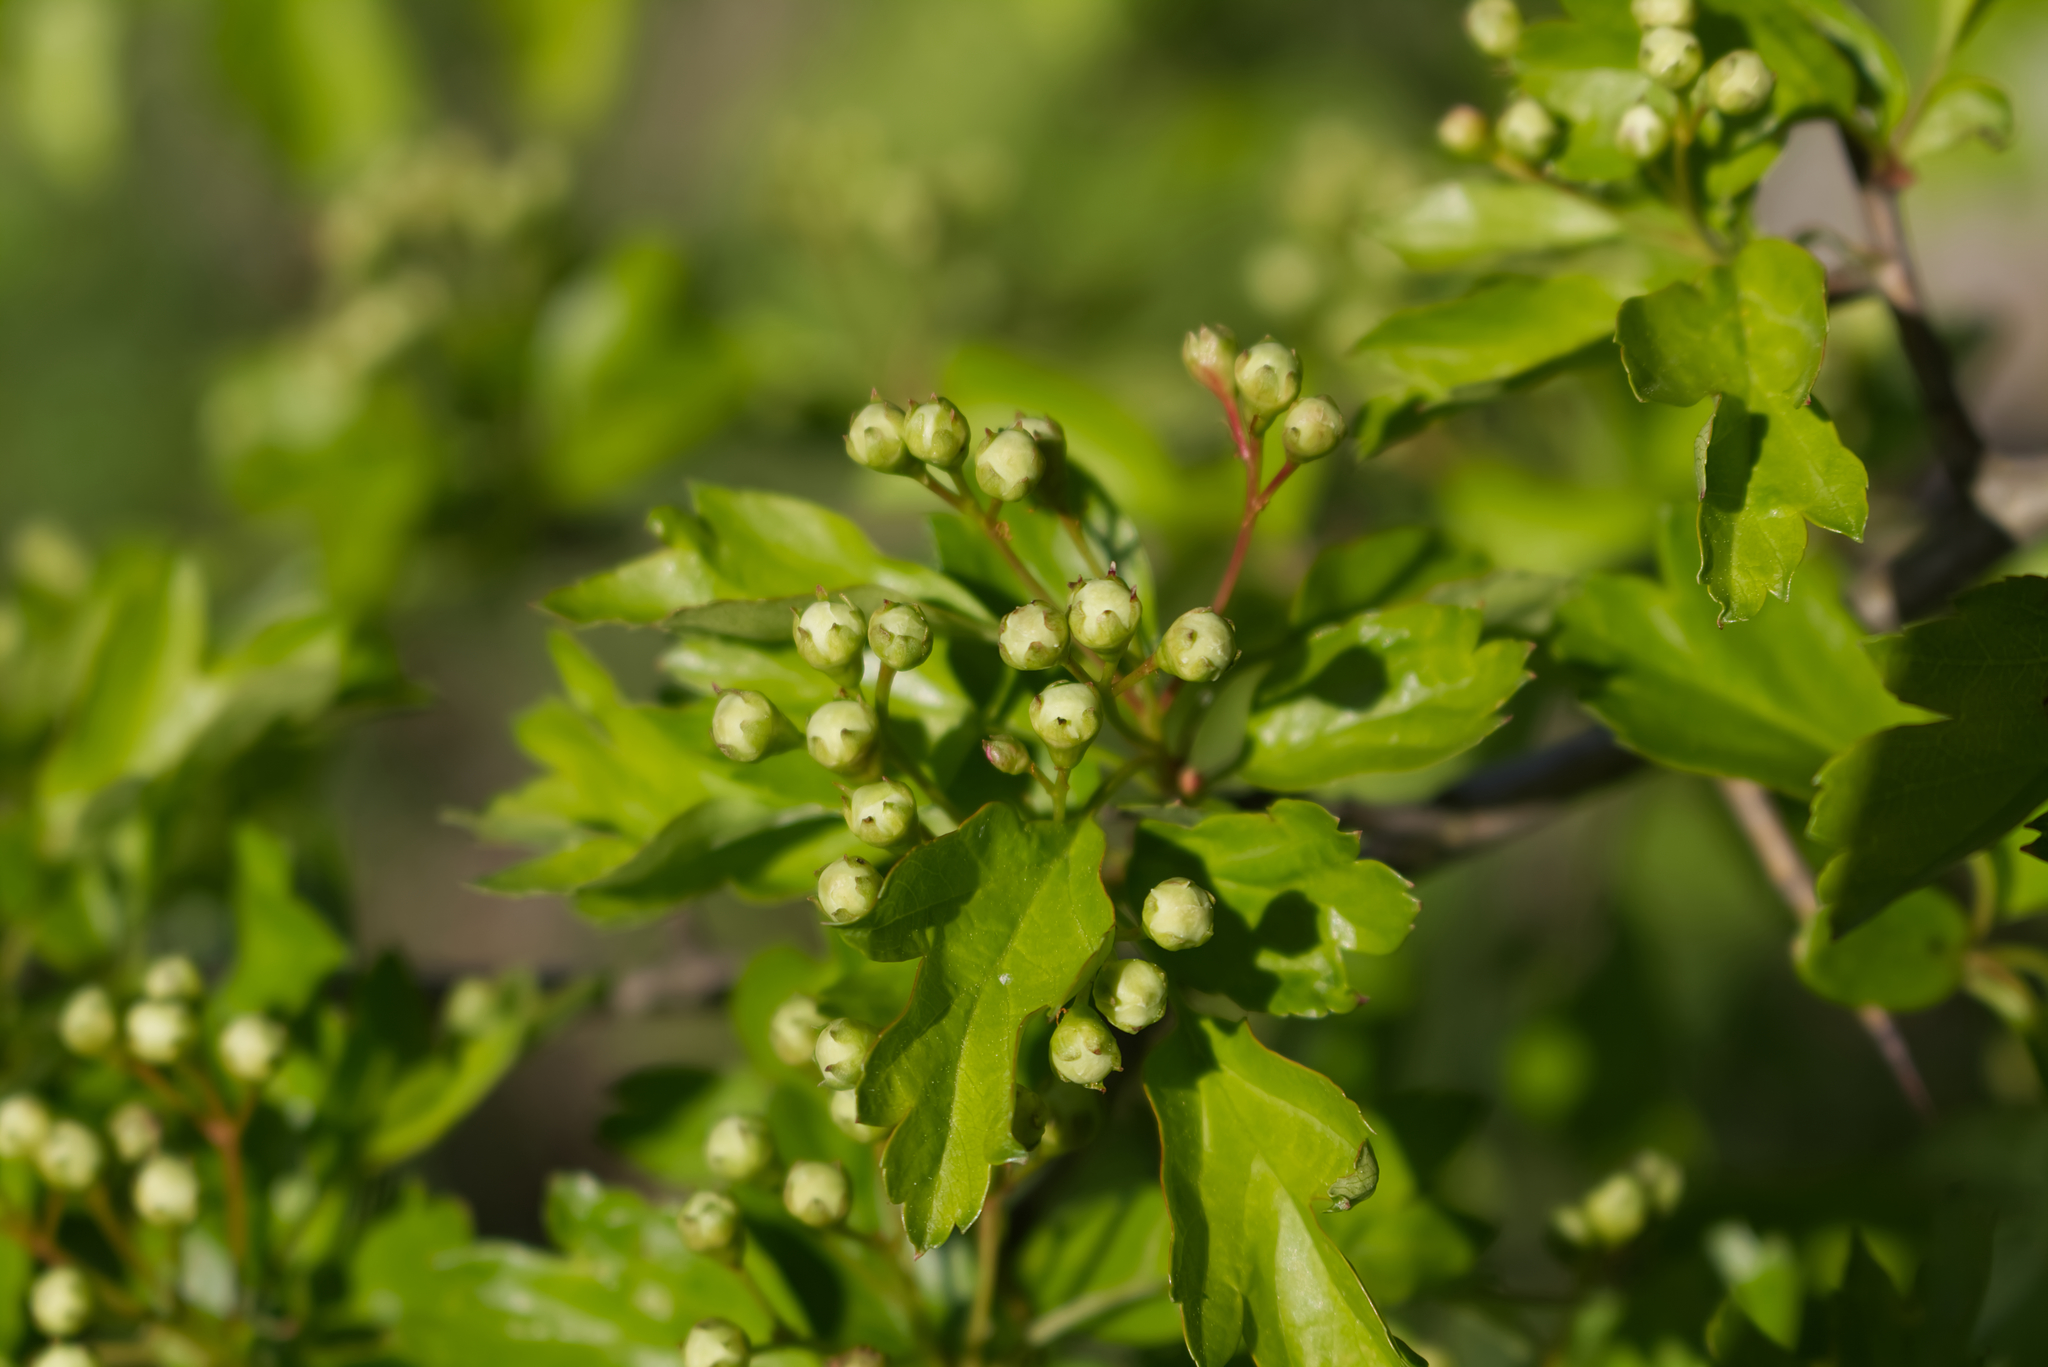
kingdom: Plantae
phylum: Tracheophyta
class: Magnoliopsida
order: Rosales
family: Rosaceae
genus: Crataegus
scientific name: Crataegus monogyna
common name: Hawthorn
